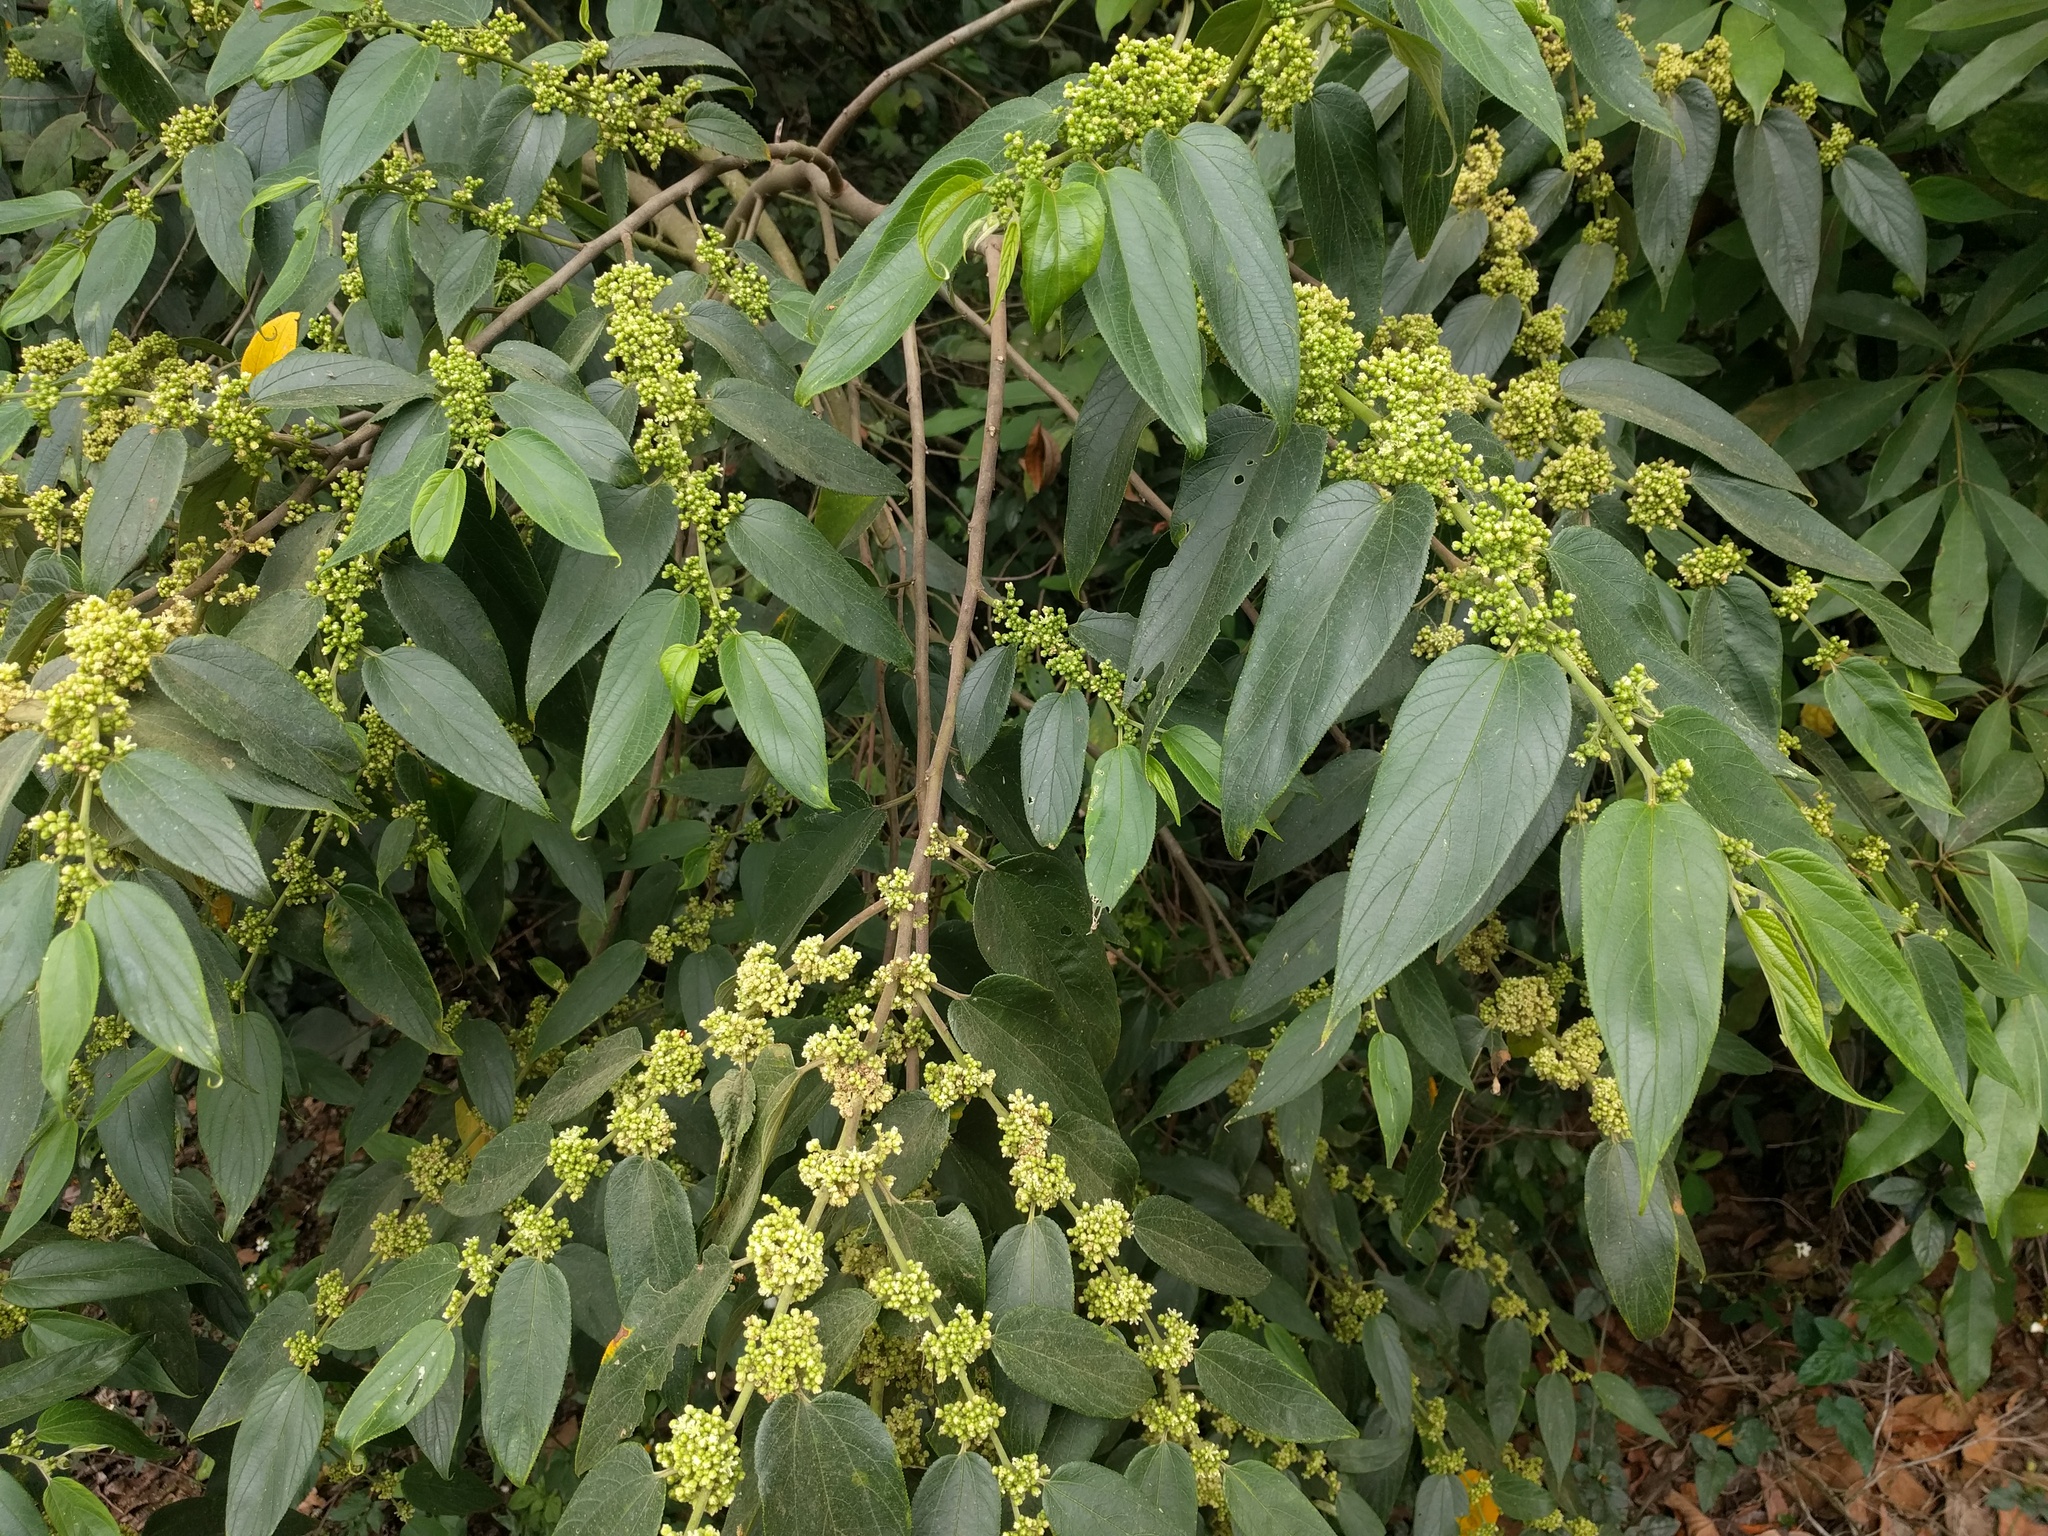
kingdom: Plantae
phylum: Tracheophyta
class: Magnoliopsida
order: Rosales
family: Cannabaceae
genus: Trema
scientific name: Trema orientale
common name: Indian charcoal tree
